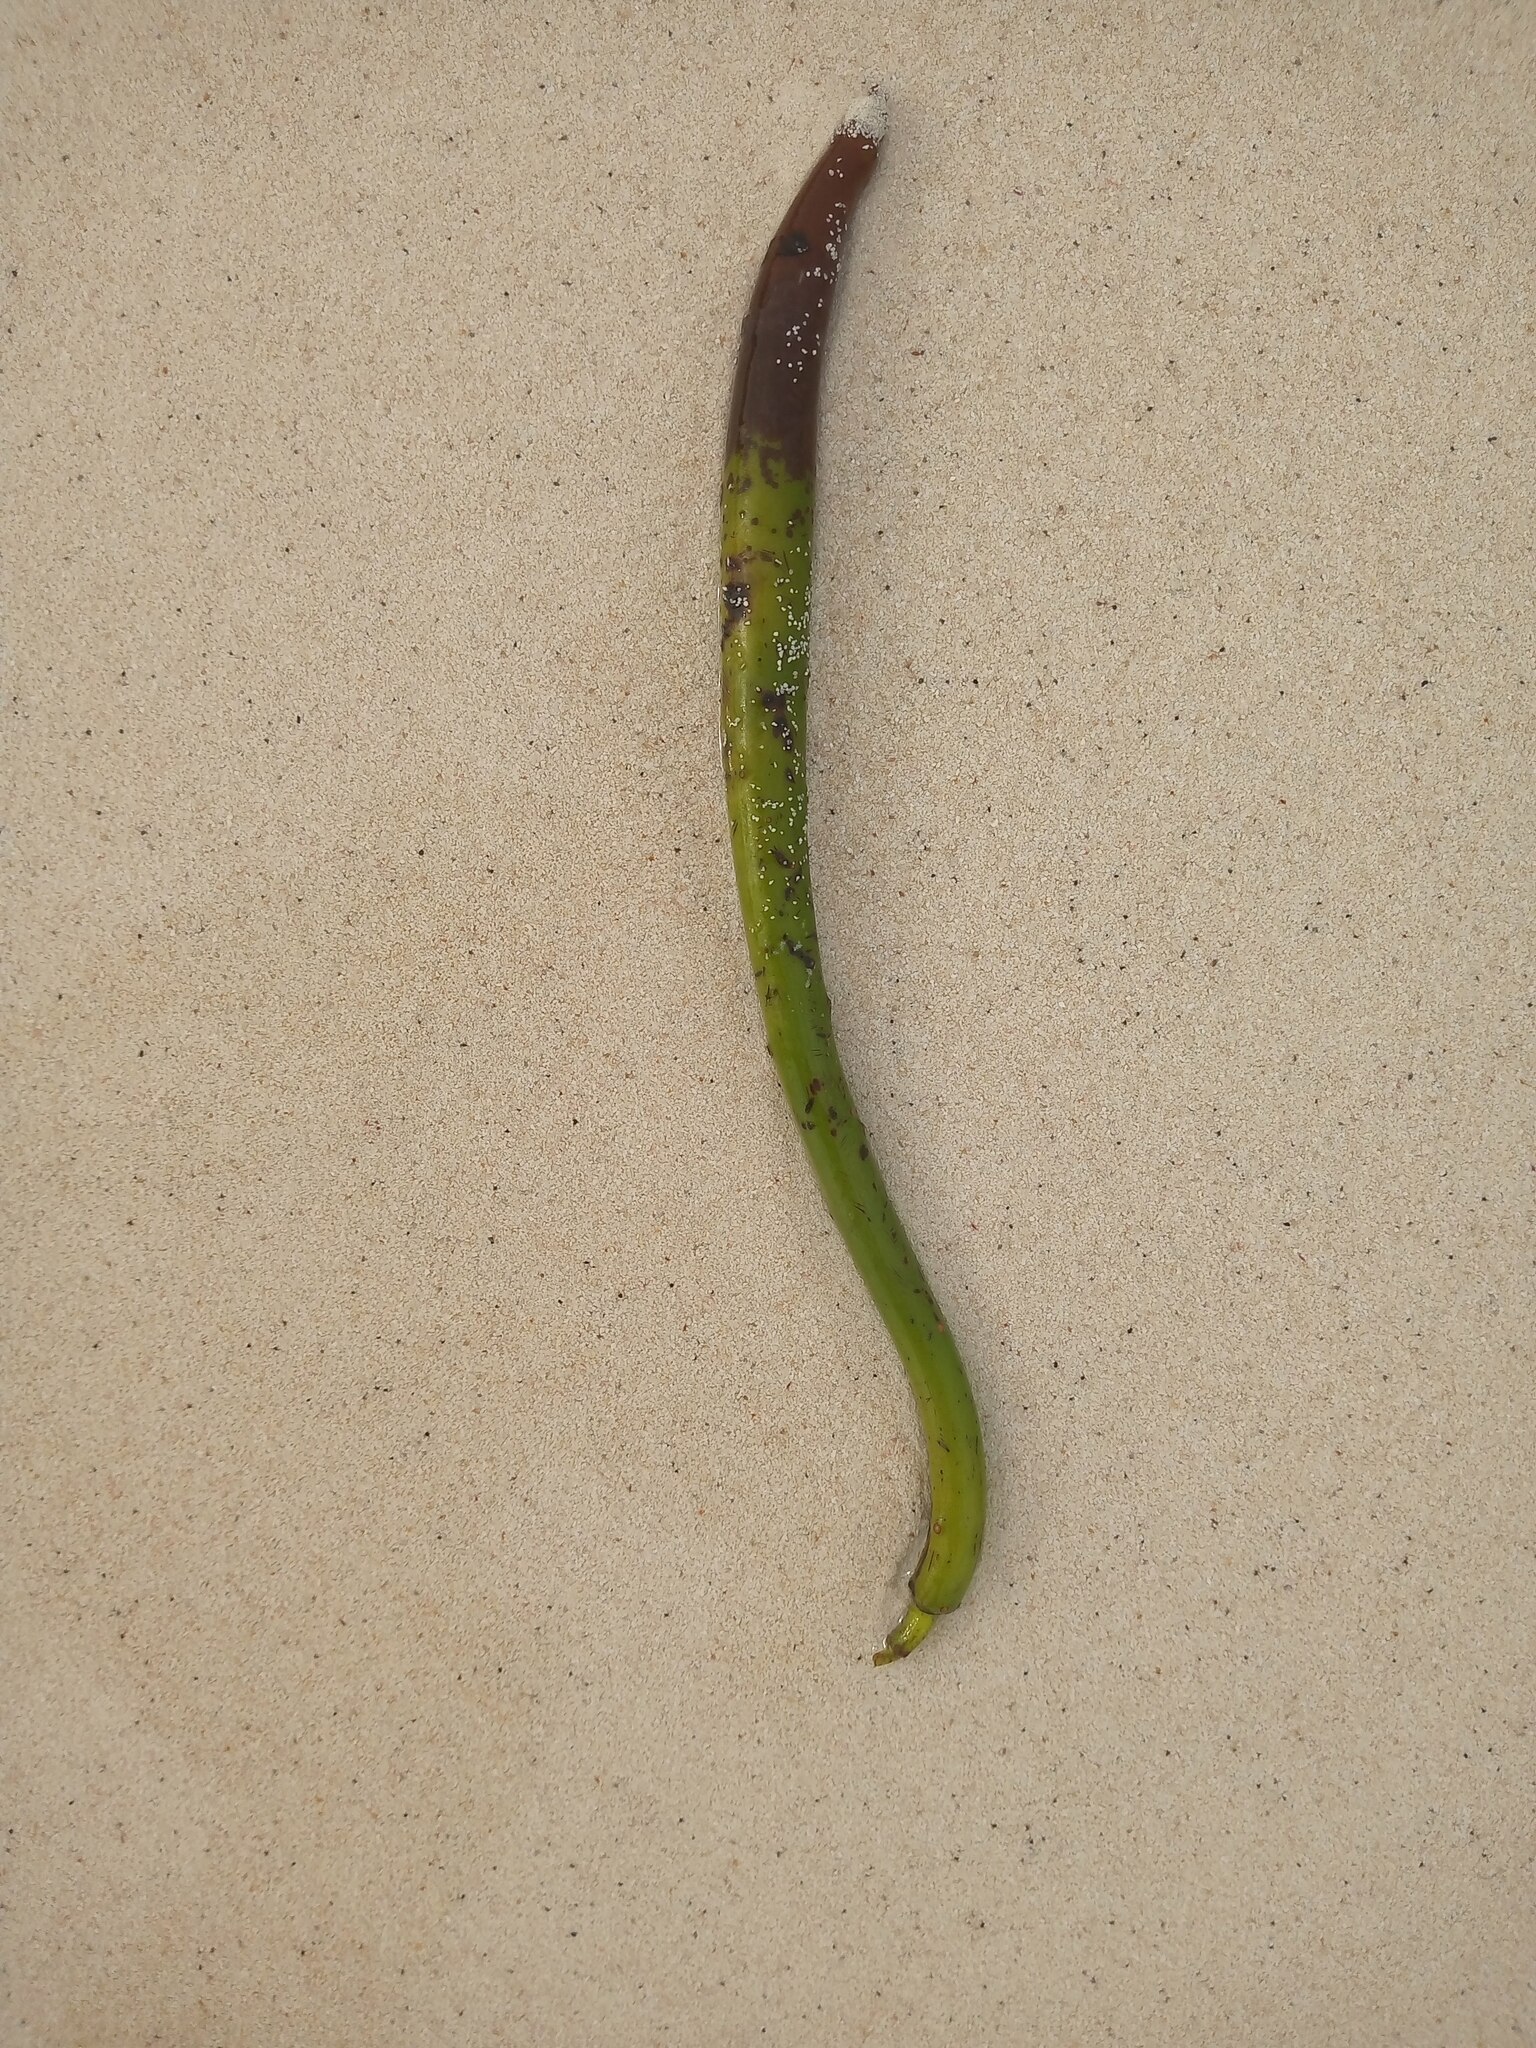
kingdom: Plantae
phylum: Tracheophyta
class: Magnoliopsida
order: Malpighiales
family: Rhizophoraceae
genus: Rhizophora
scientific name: Rhizophora mangle
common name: Red mangrove
